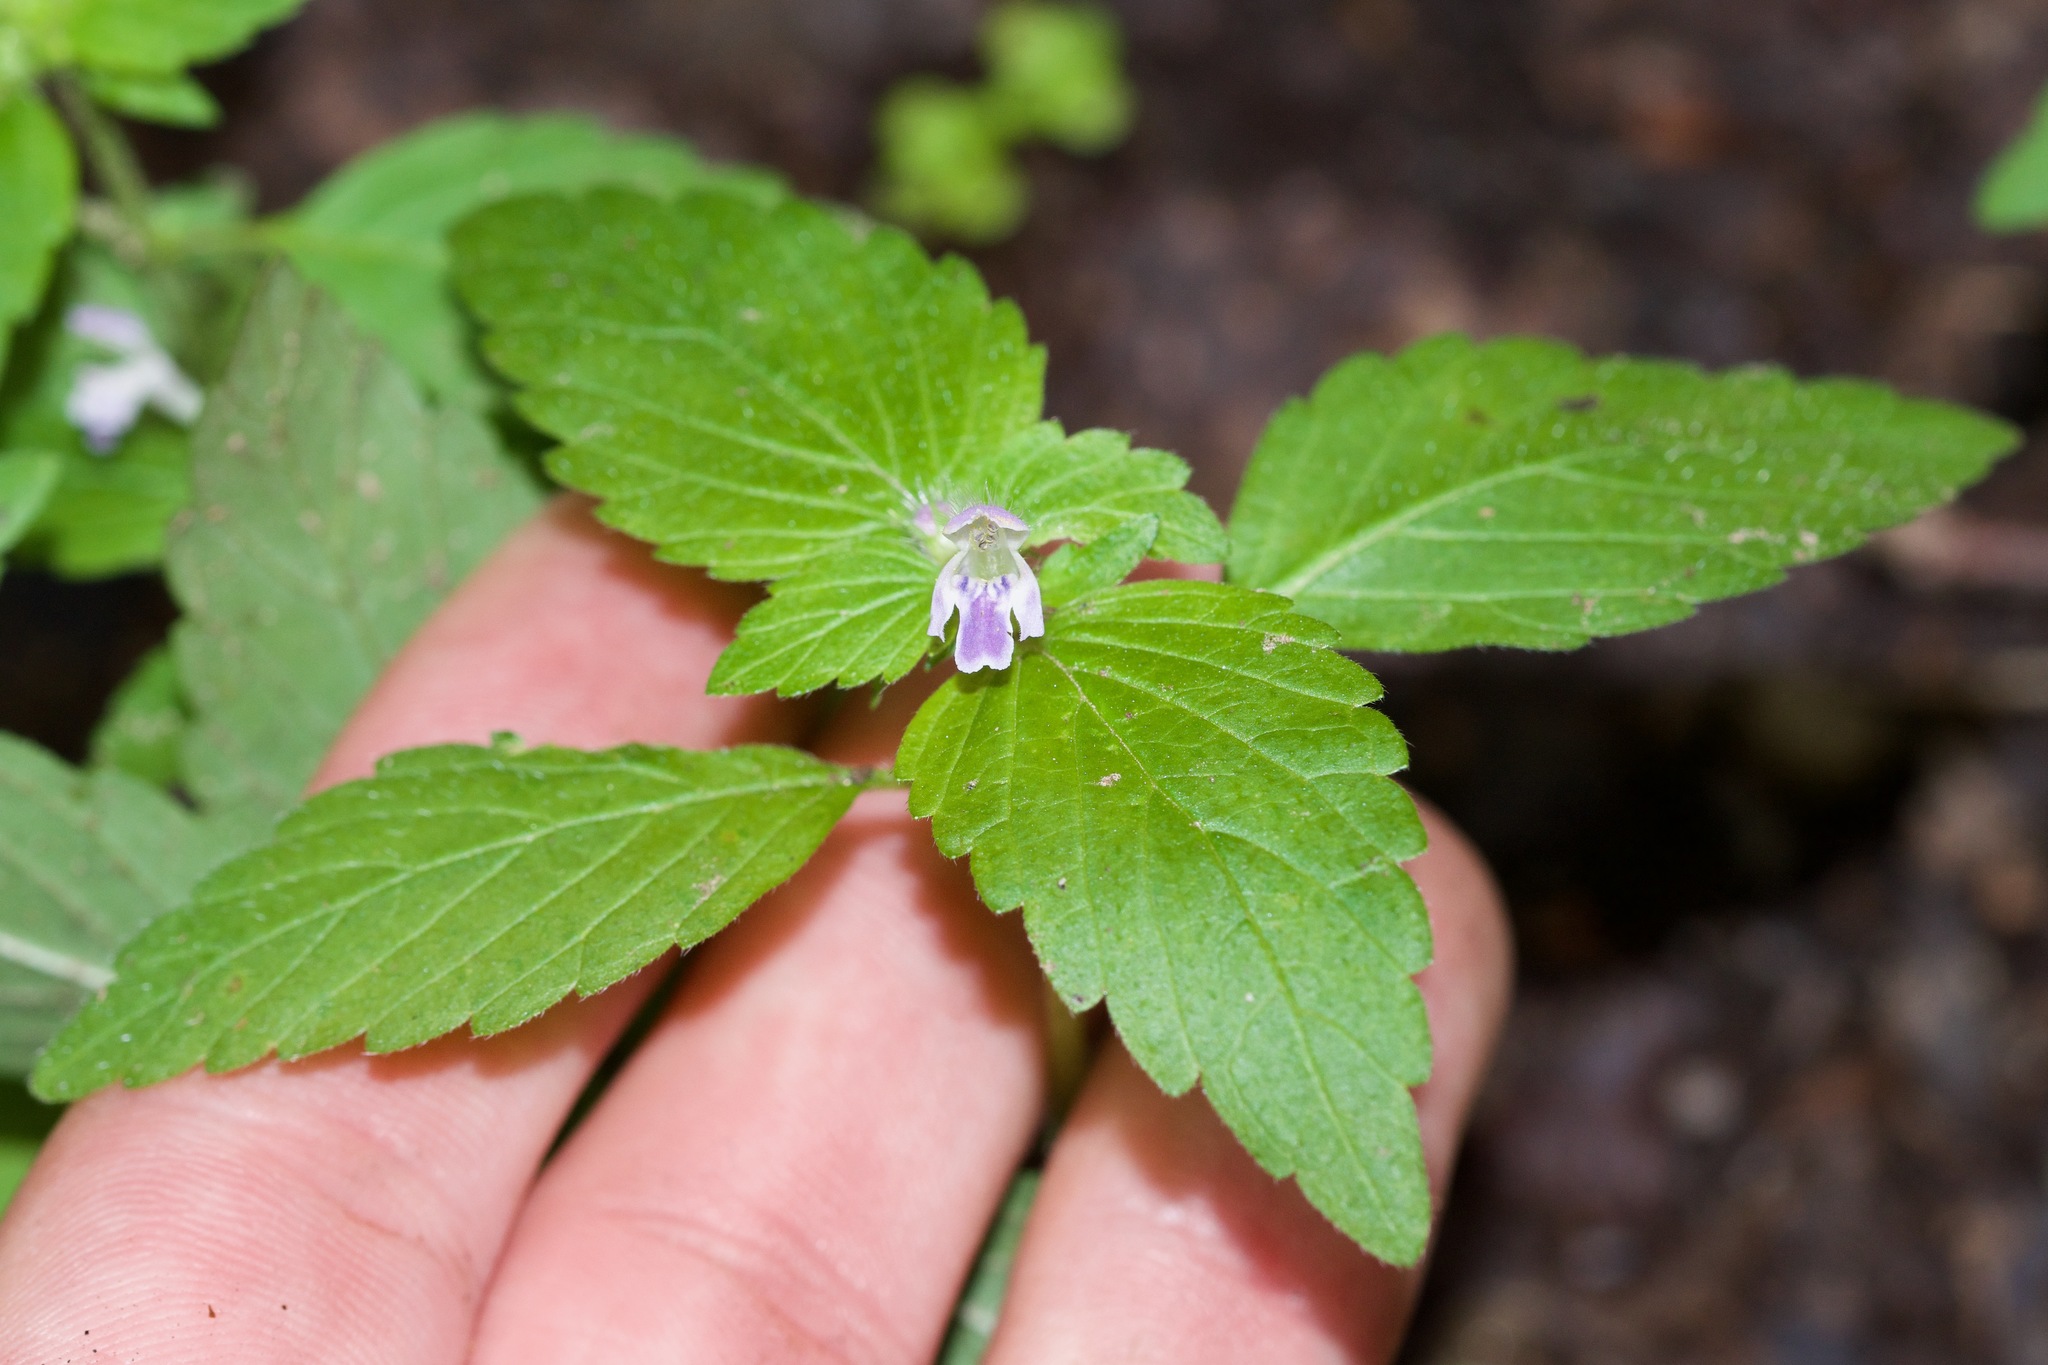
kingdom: Plantae
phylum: Tracheophyta
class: Magnoliopsida
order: Lamiales
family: Lamiaceae
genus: Galeopsis
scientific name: Galeopsis bifida
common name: Bifid hemp-nettle
